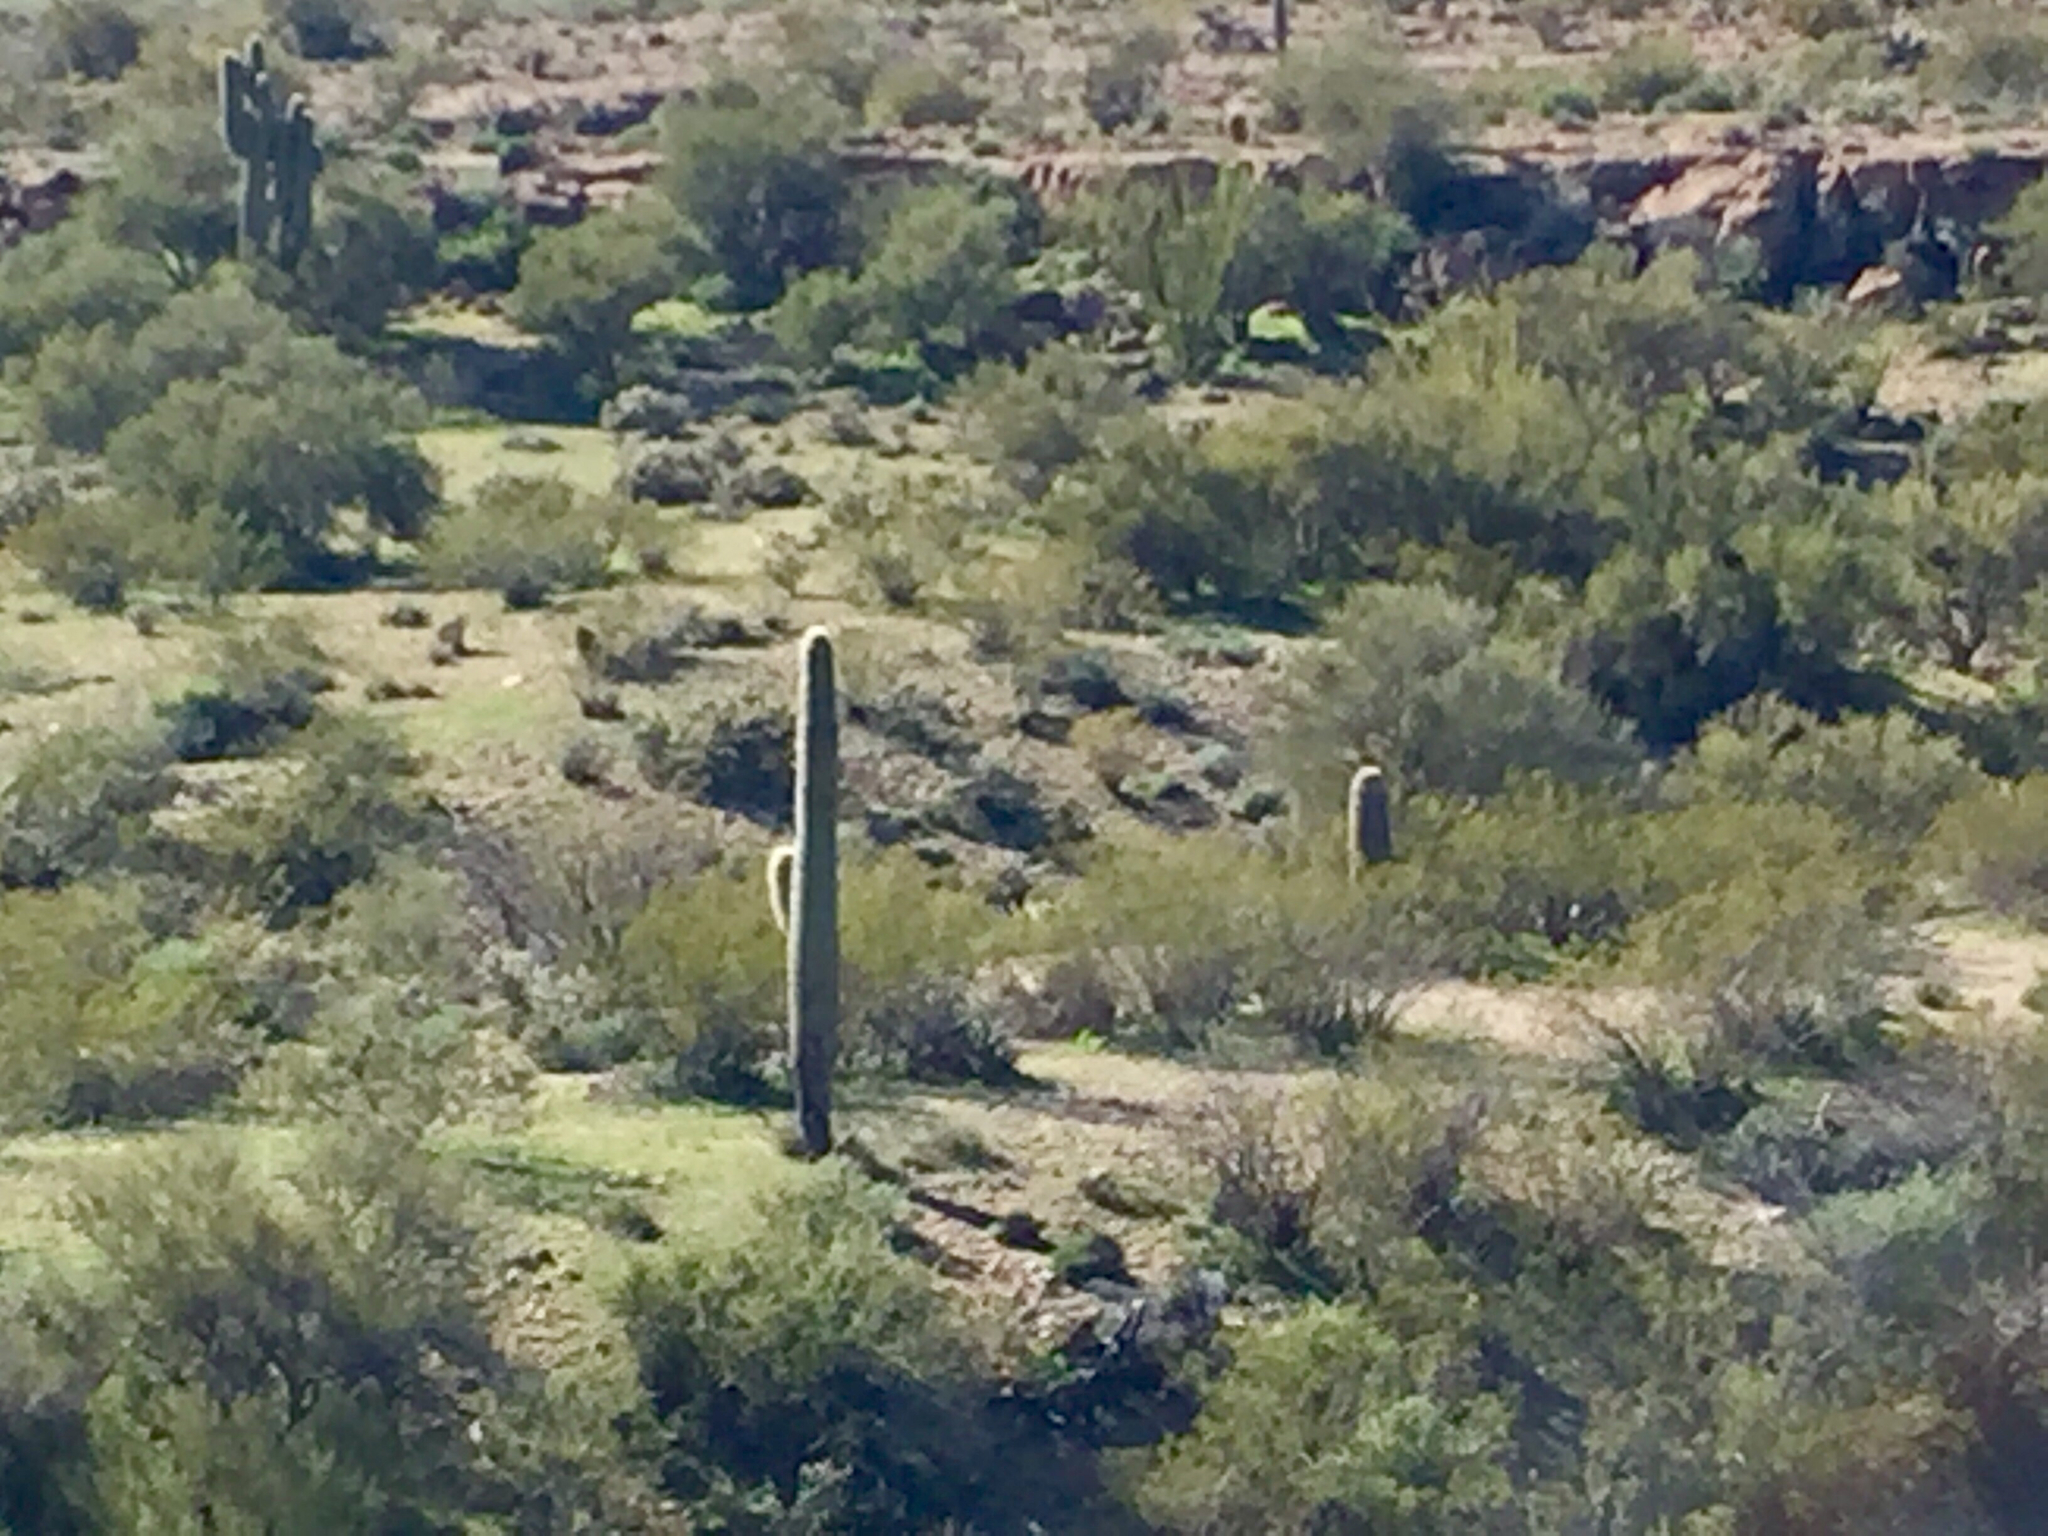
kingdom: Plantae
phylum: Tracheophyta
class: Magnoliopsida
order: Caryophyllales
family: Cactaceae
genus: Carnegiea
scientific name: Carnegiea gigantea
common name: Saguaro
